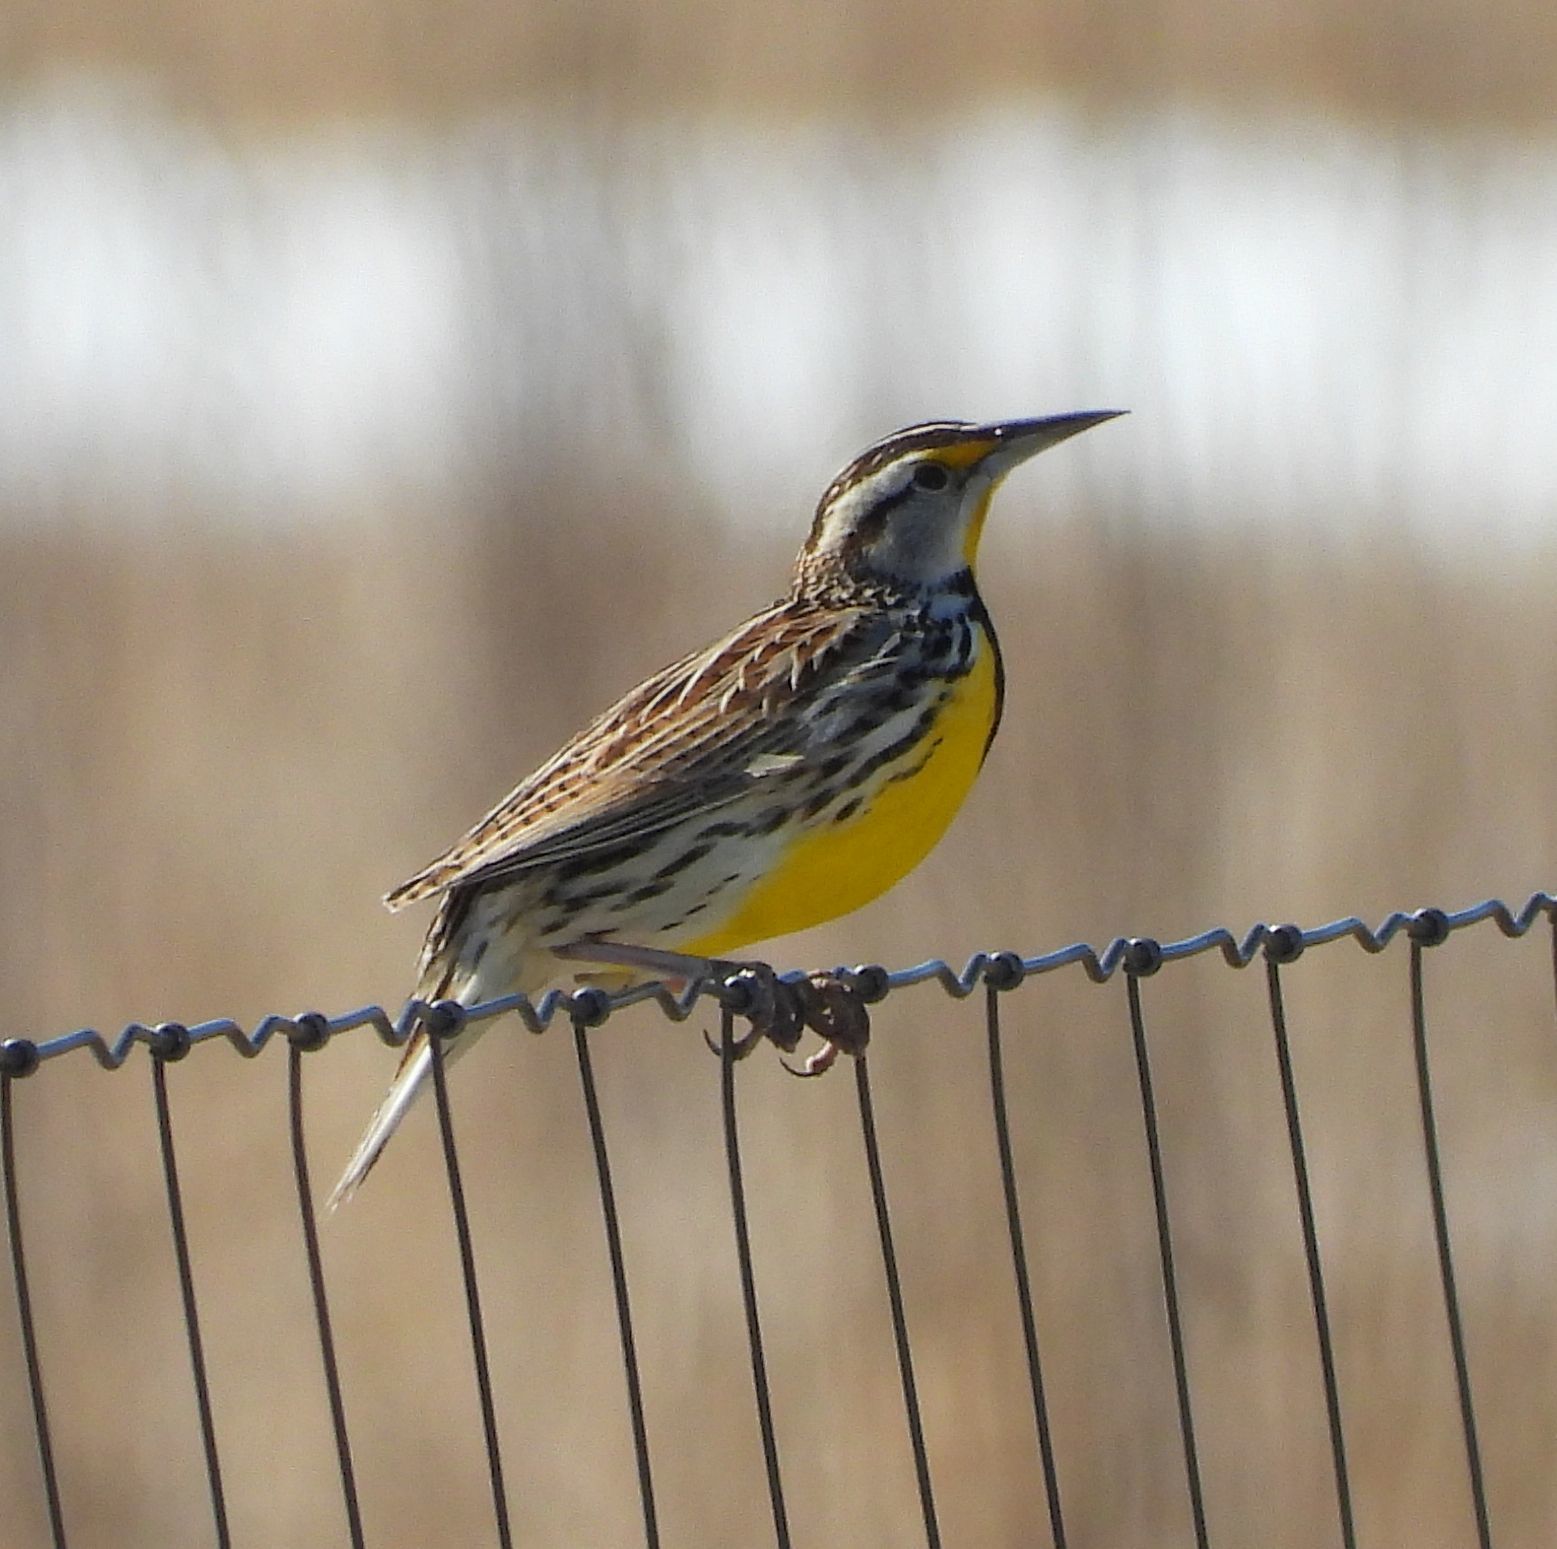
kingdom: Animalia
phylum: Chordata
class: Aves
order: Passeriformes
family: Icteridae
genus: Sturnella
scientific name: Sturnella magna
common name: Eastern meadowlark
